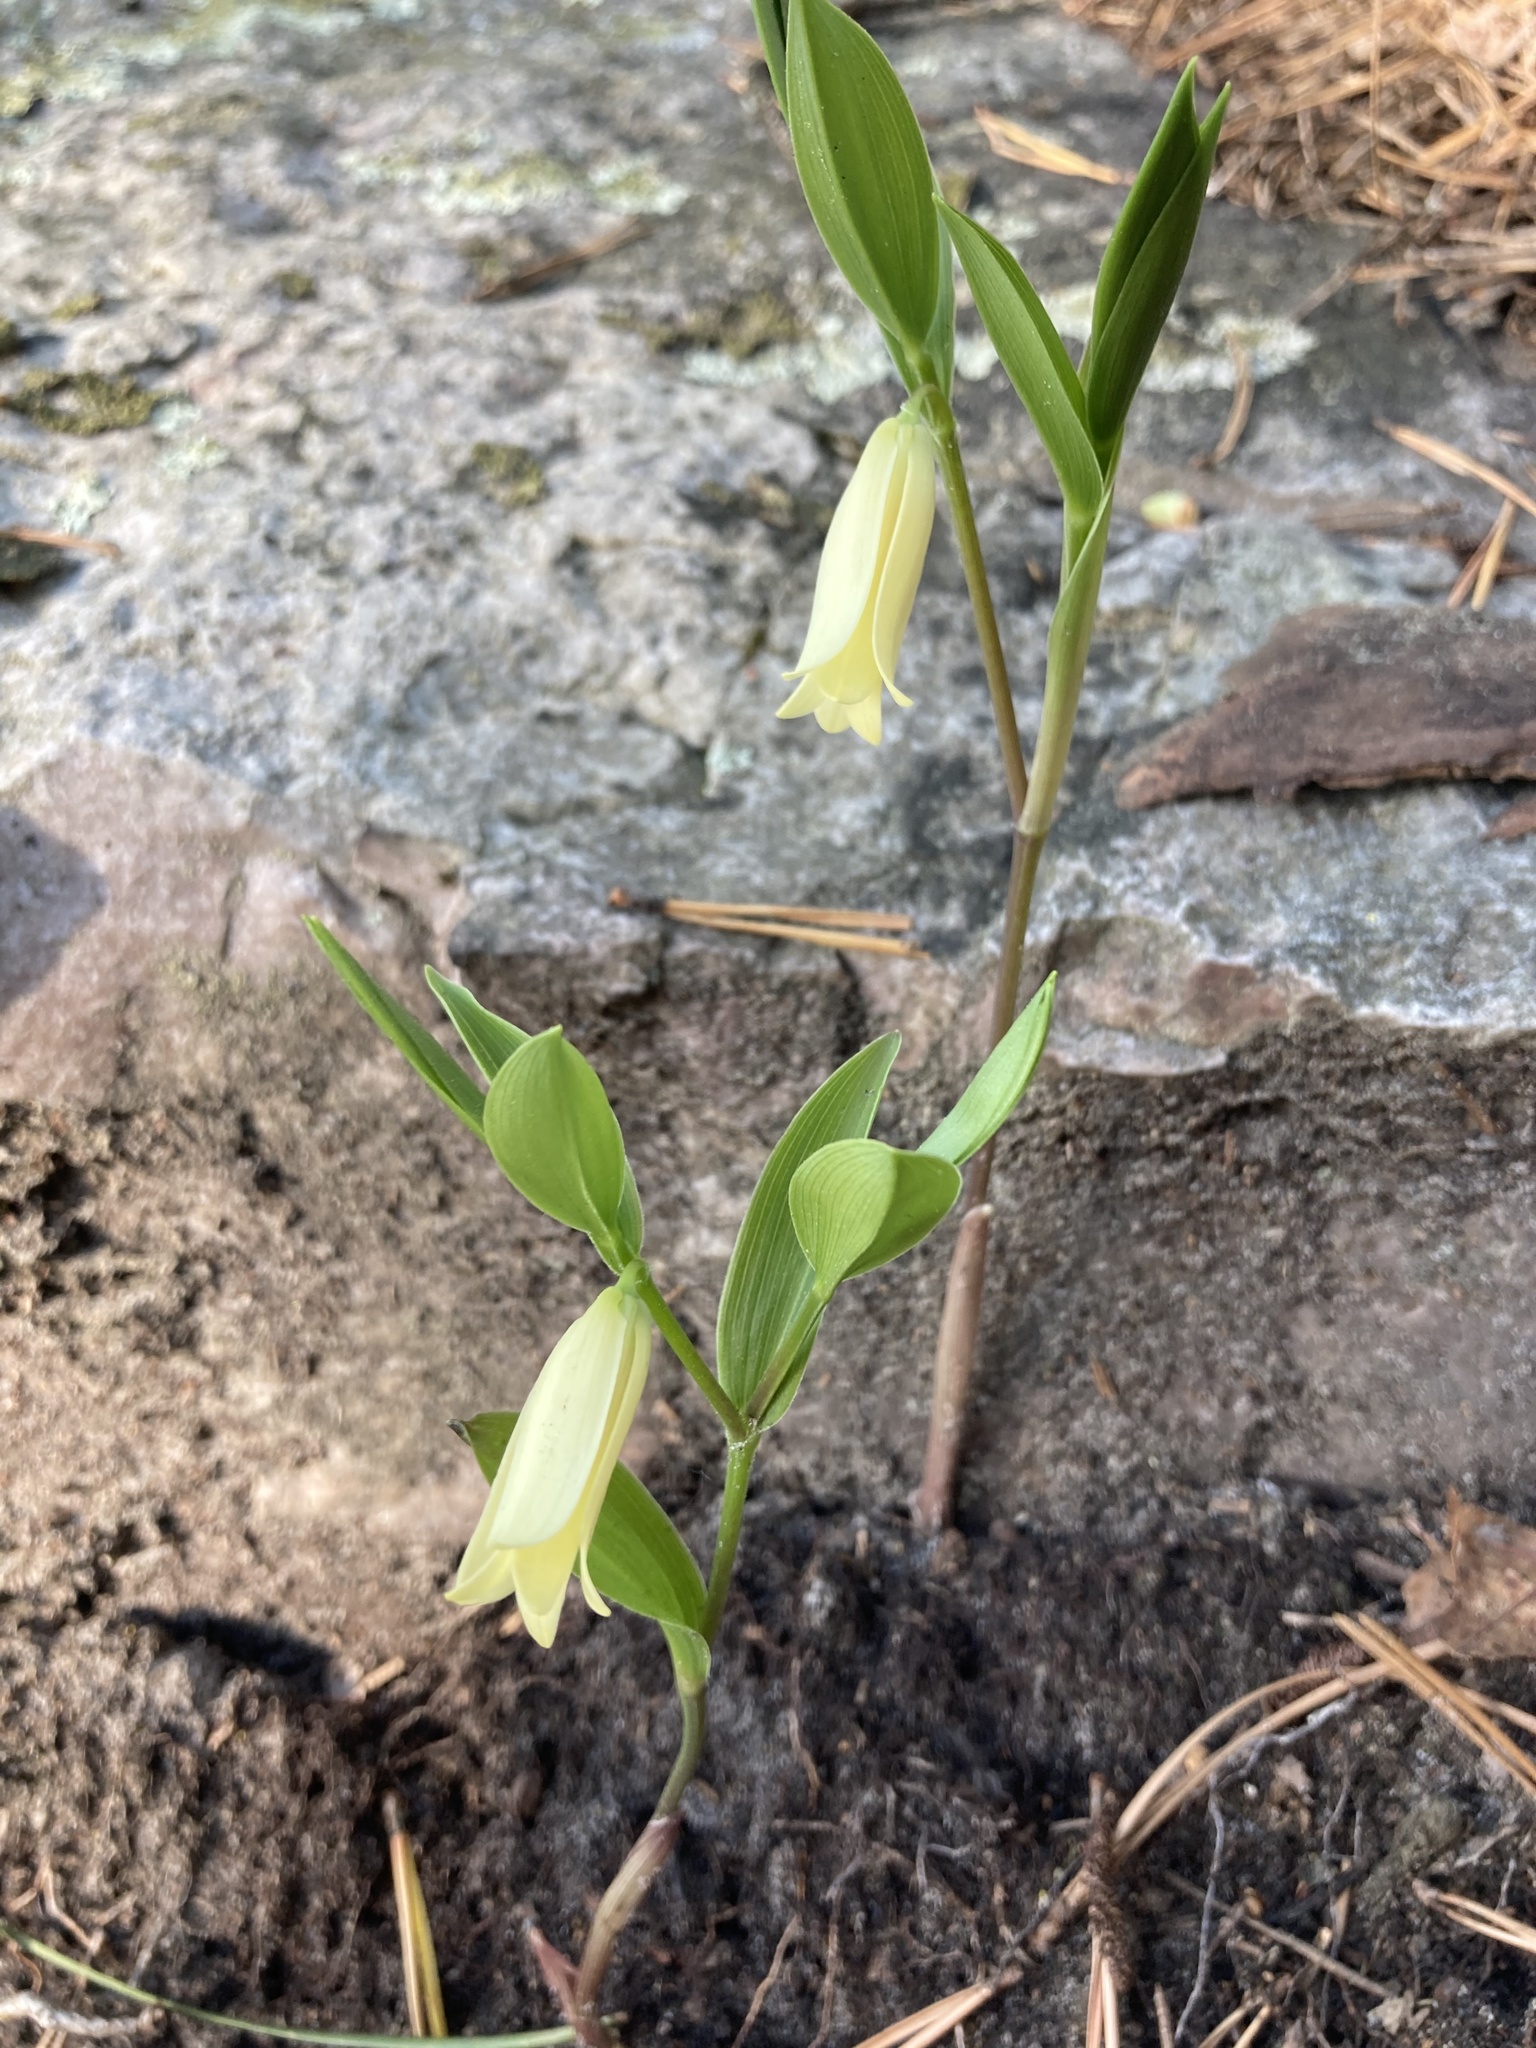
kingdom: Plantae
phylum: Tracheophyta
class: Liliopsida
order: Liliales
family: Colchicaceae
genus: Uvularia
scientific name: Uvularia puberula
